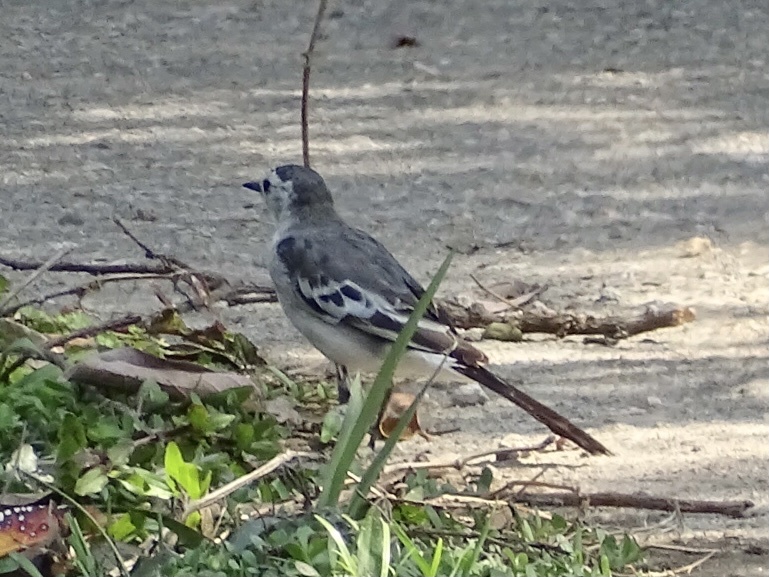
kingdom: Animalia
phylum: Chordata
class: Aves
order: Passeriformes
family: Motacillidae
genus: Motacilla
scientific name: Motacilla alba
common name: White wagtail
